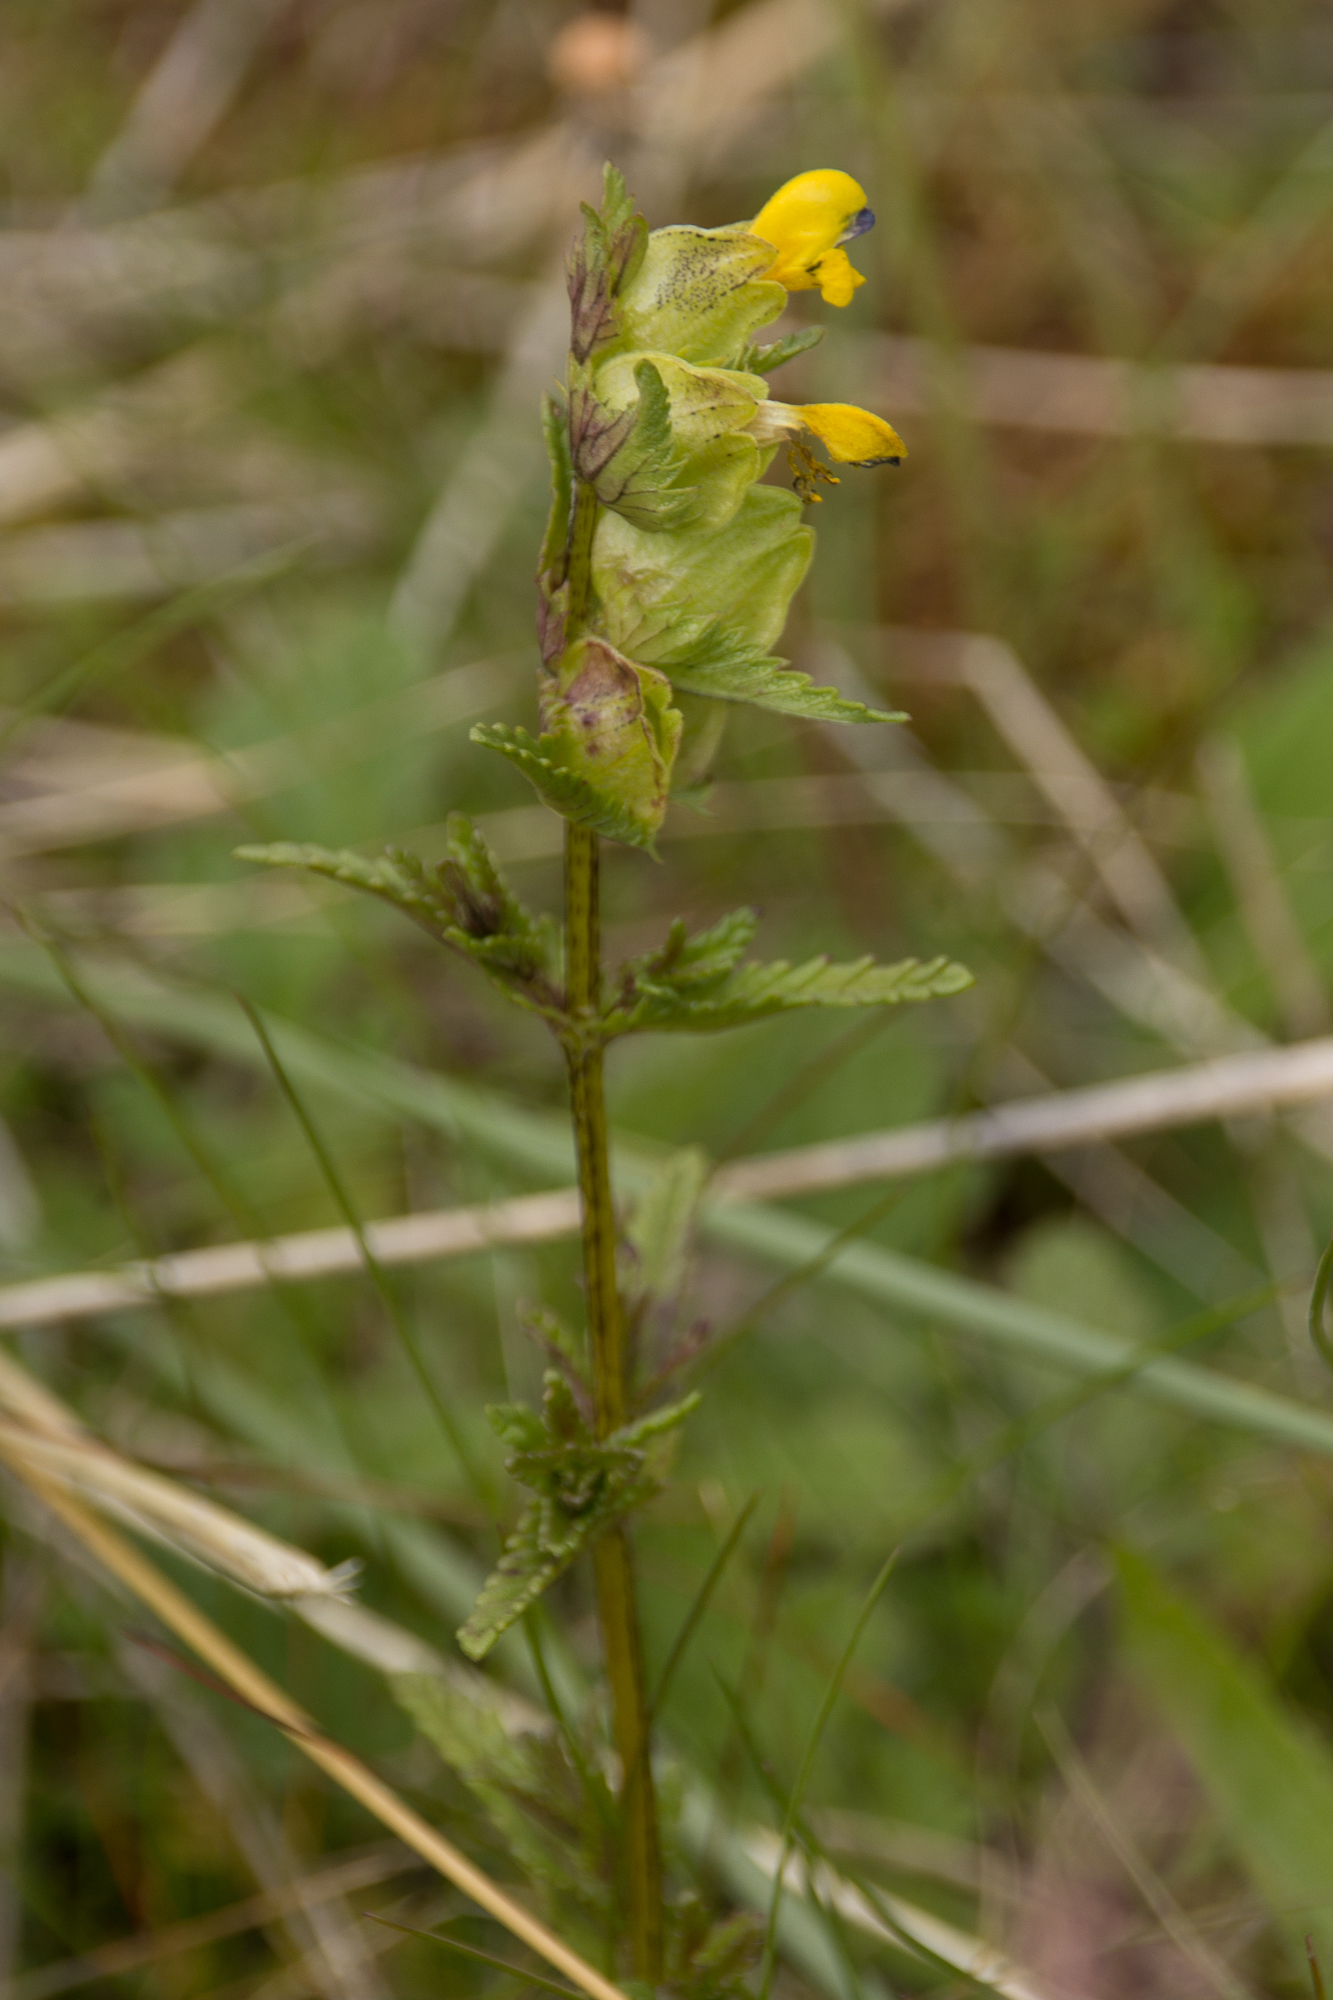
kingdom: Plantae
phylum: Tracheophyta
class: Magnoliopsida
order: Lamiales
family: Orobanchaceae
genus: Rhinanthus
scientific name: Rhinanthus minor
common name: Yellow-rattle
